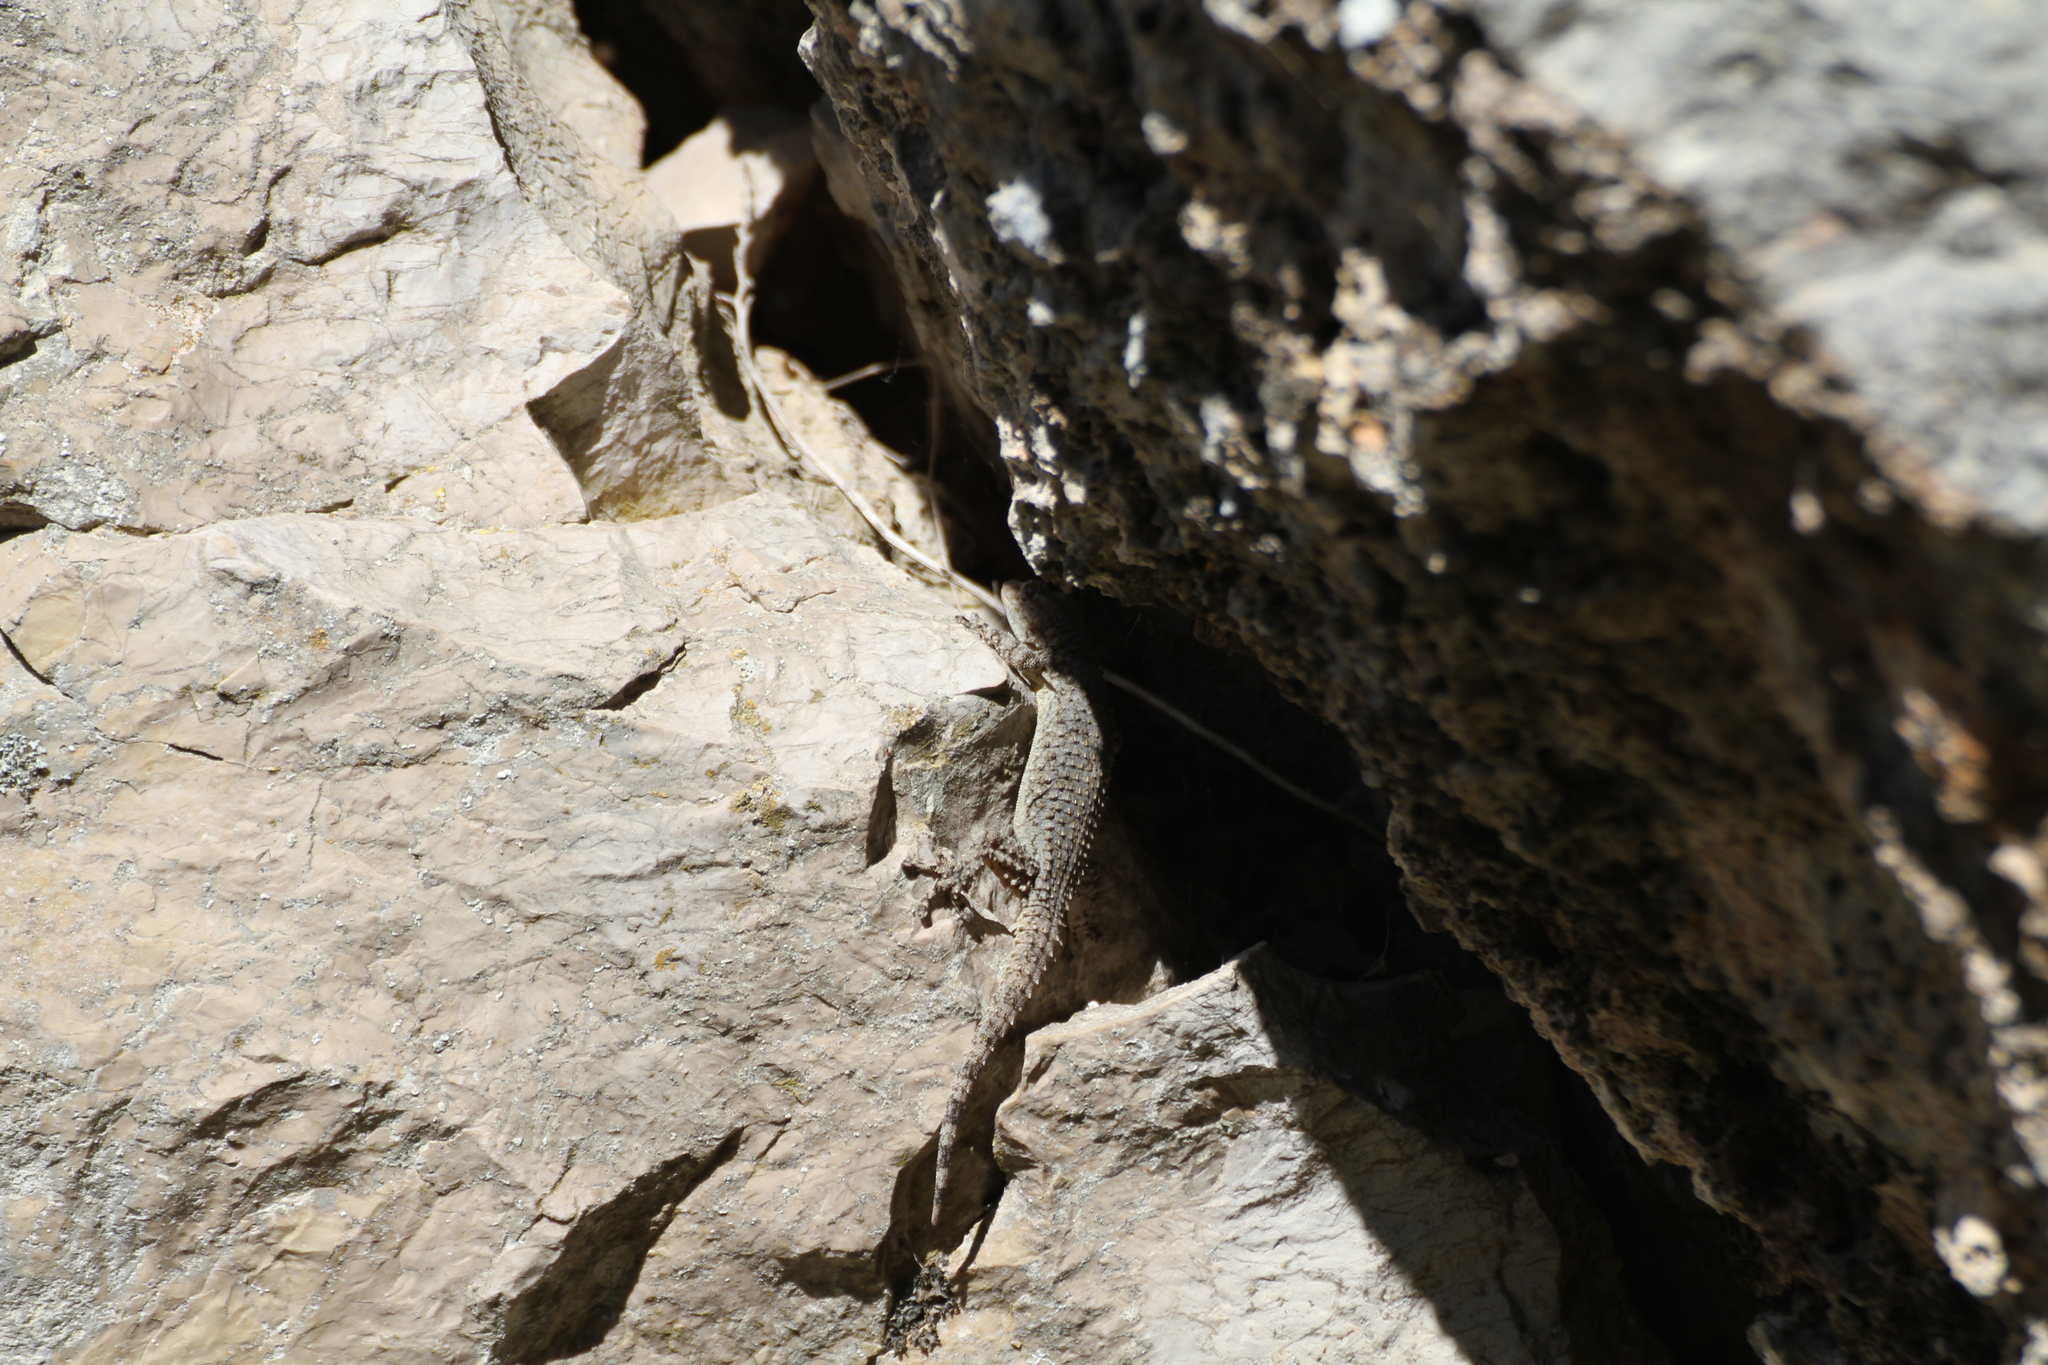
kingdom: Animalia
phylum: Chordata
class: Squamata
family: Phyllodactylidae
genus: Tarentola
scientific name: Tarentola mauritanica
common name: Moorish gecko
